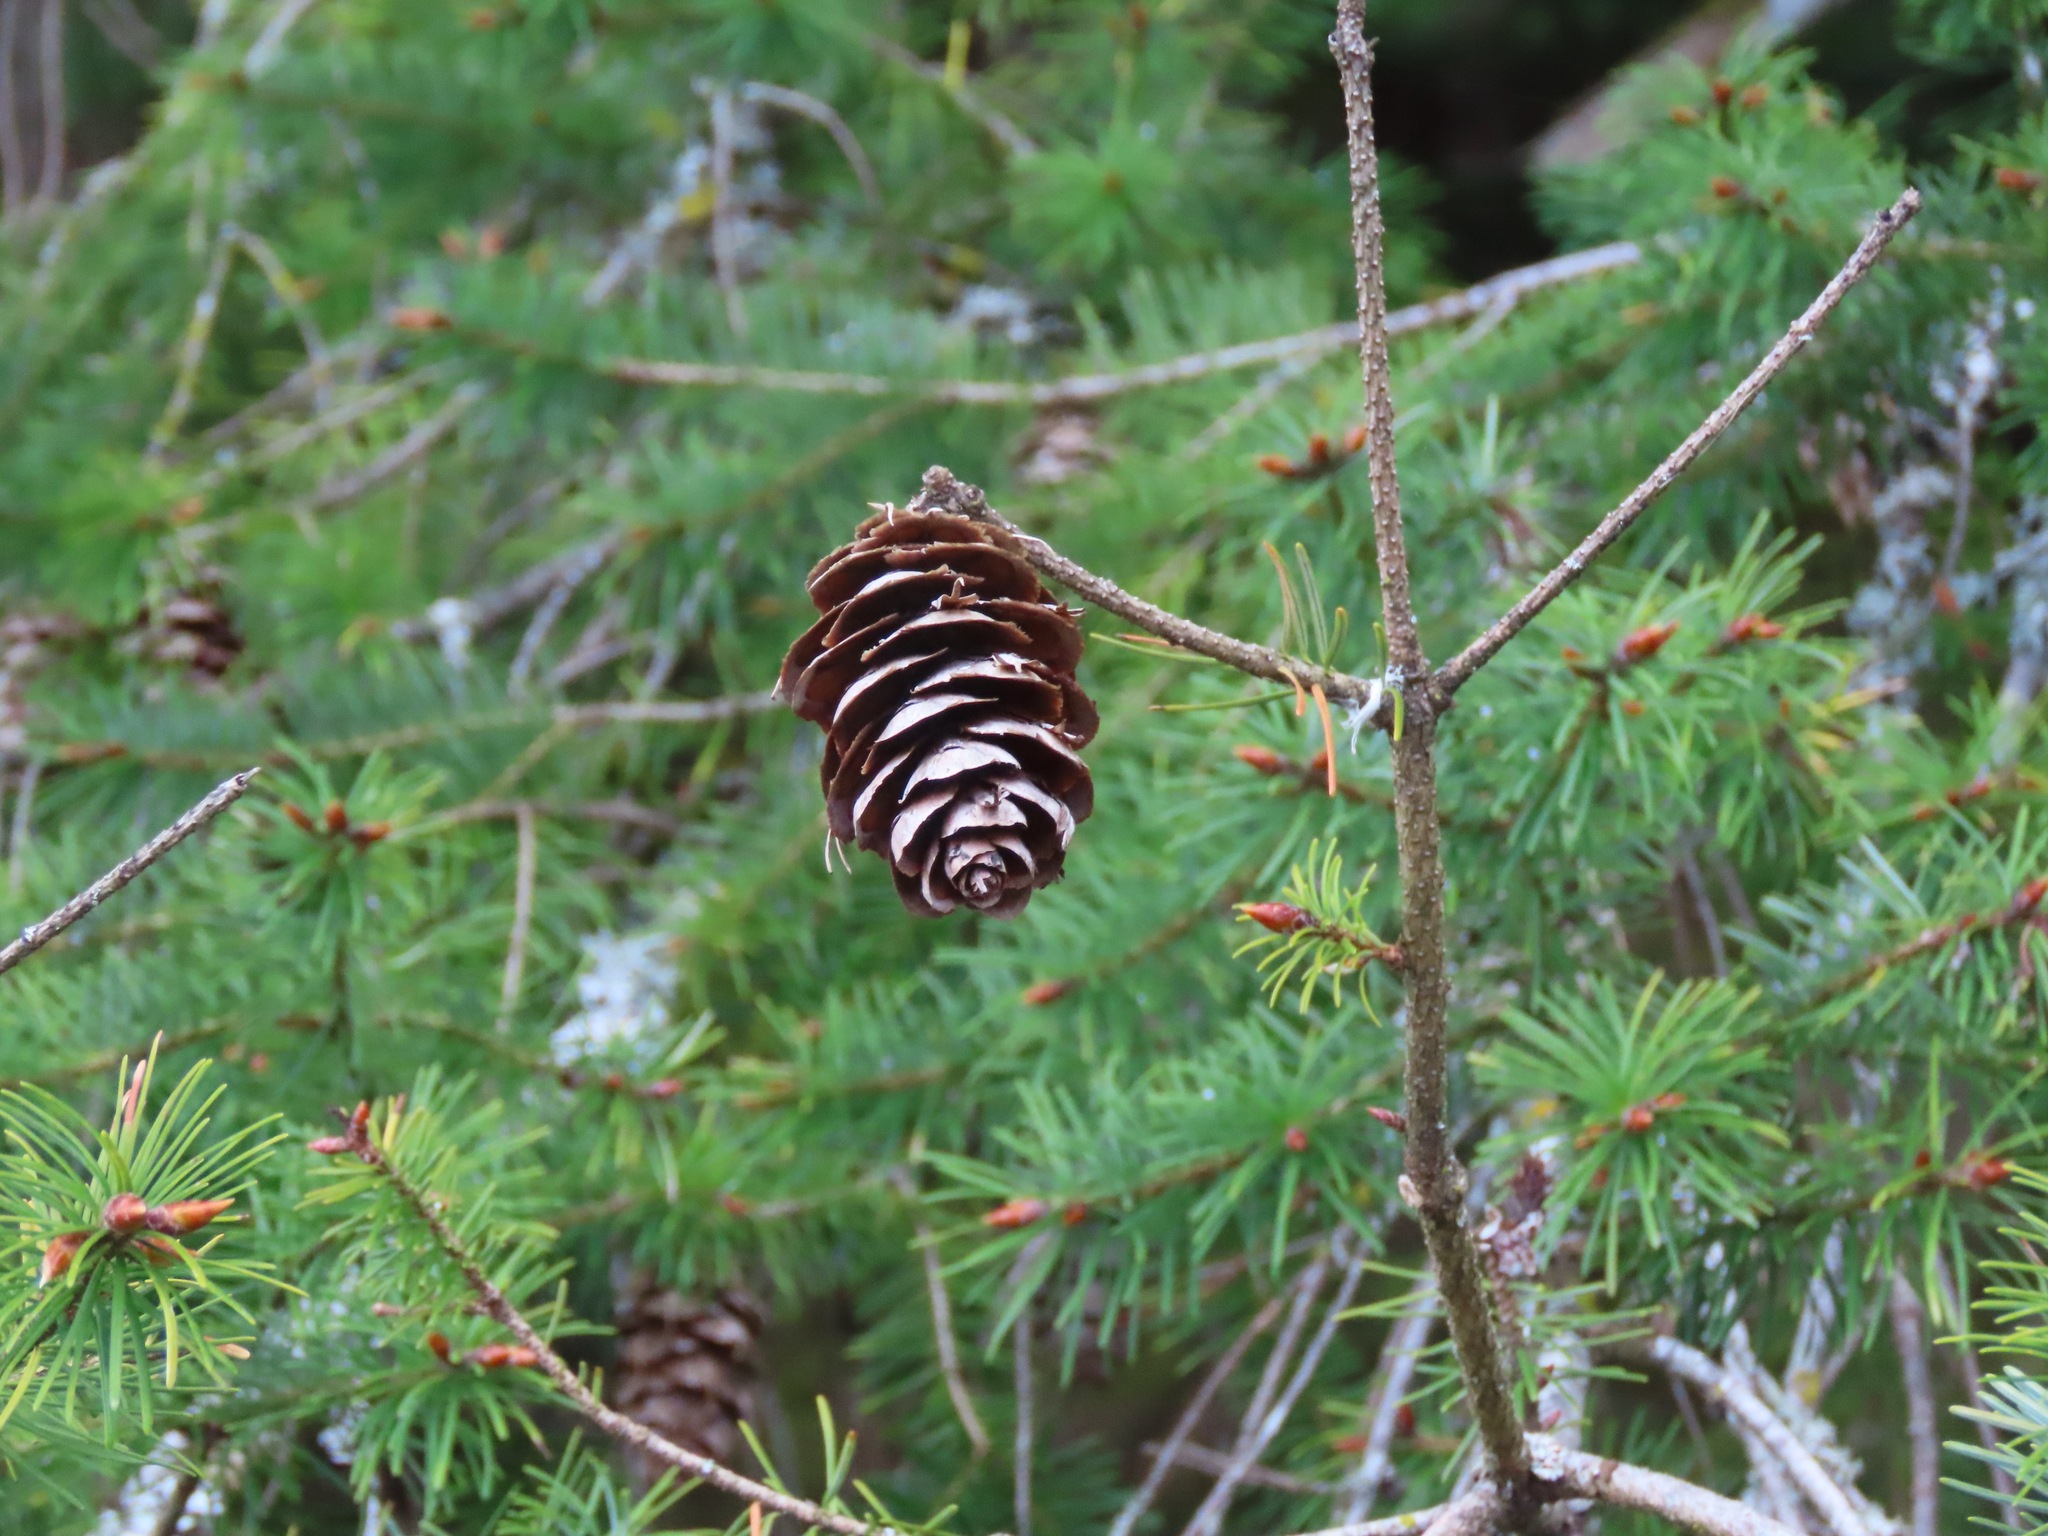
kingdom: Plantae
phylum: Tracheophyta
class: Pinopsida
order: Pinales
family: Pinaceae
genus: Pseudotsuga
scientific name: Pseudotsuga menziesii
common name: Douglas fir
